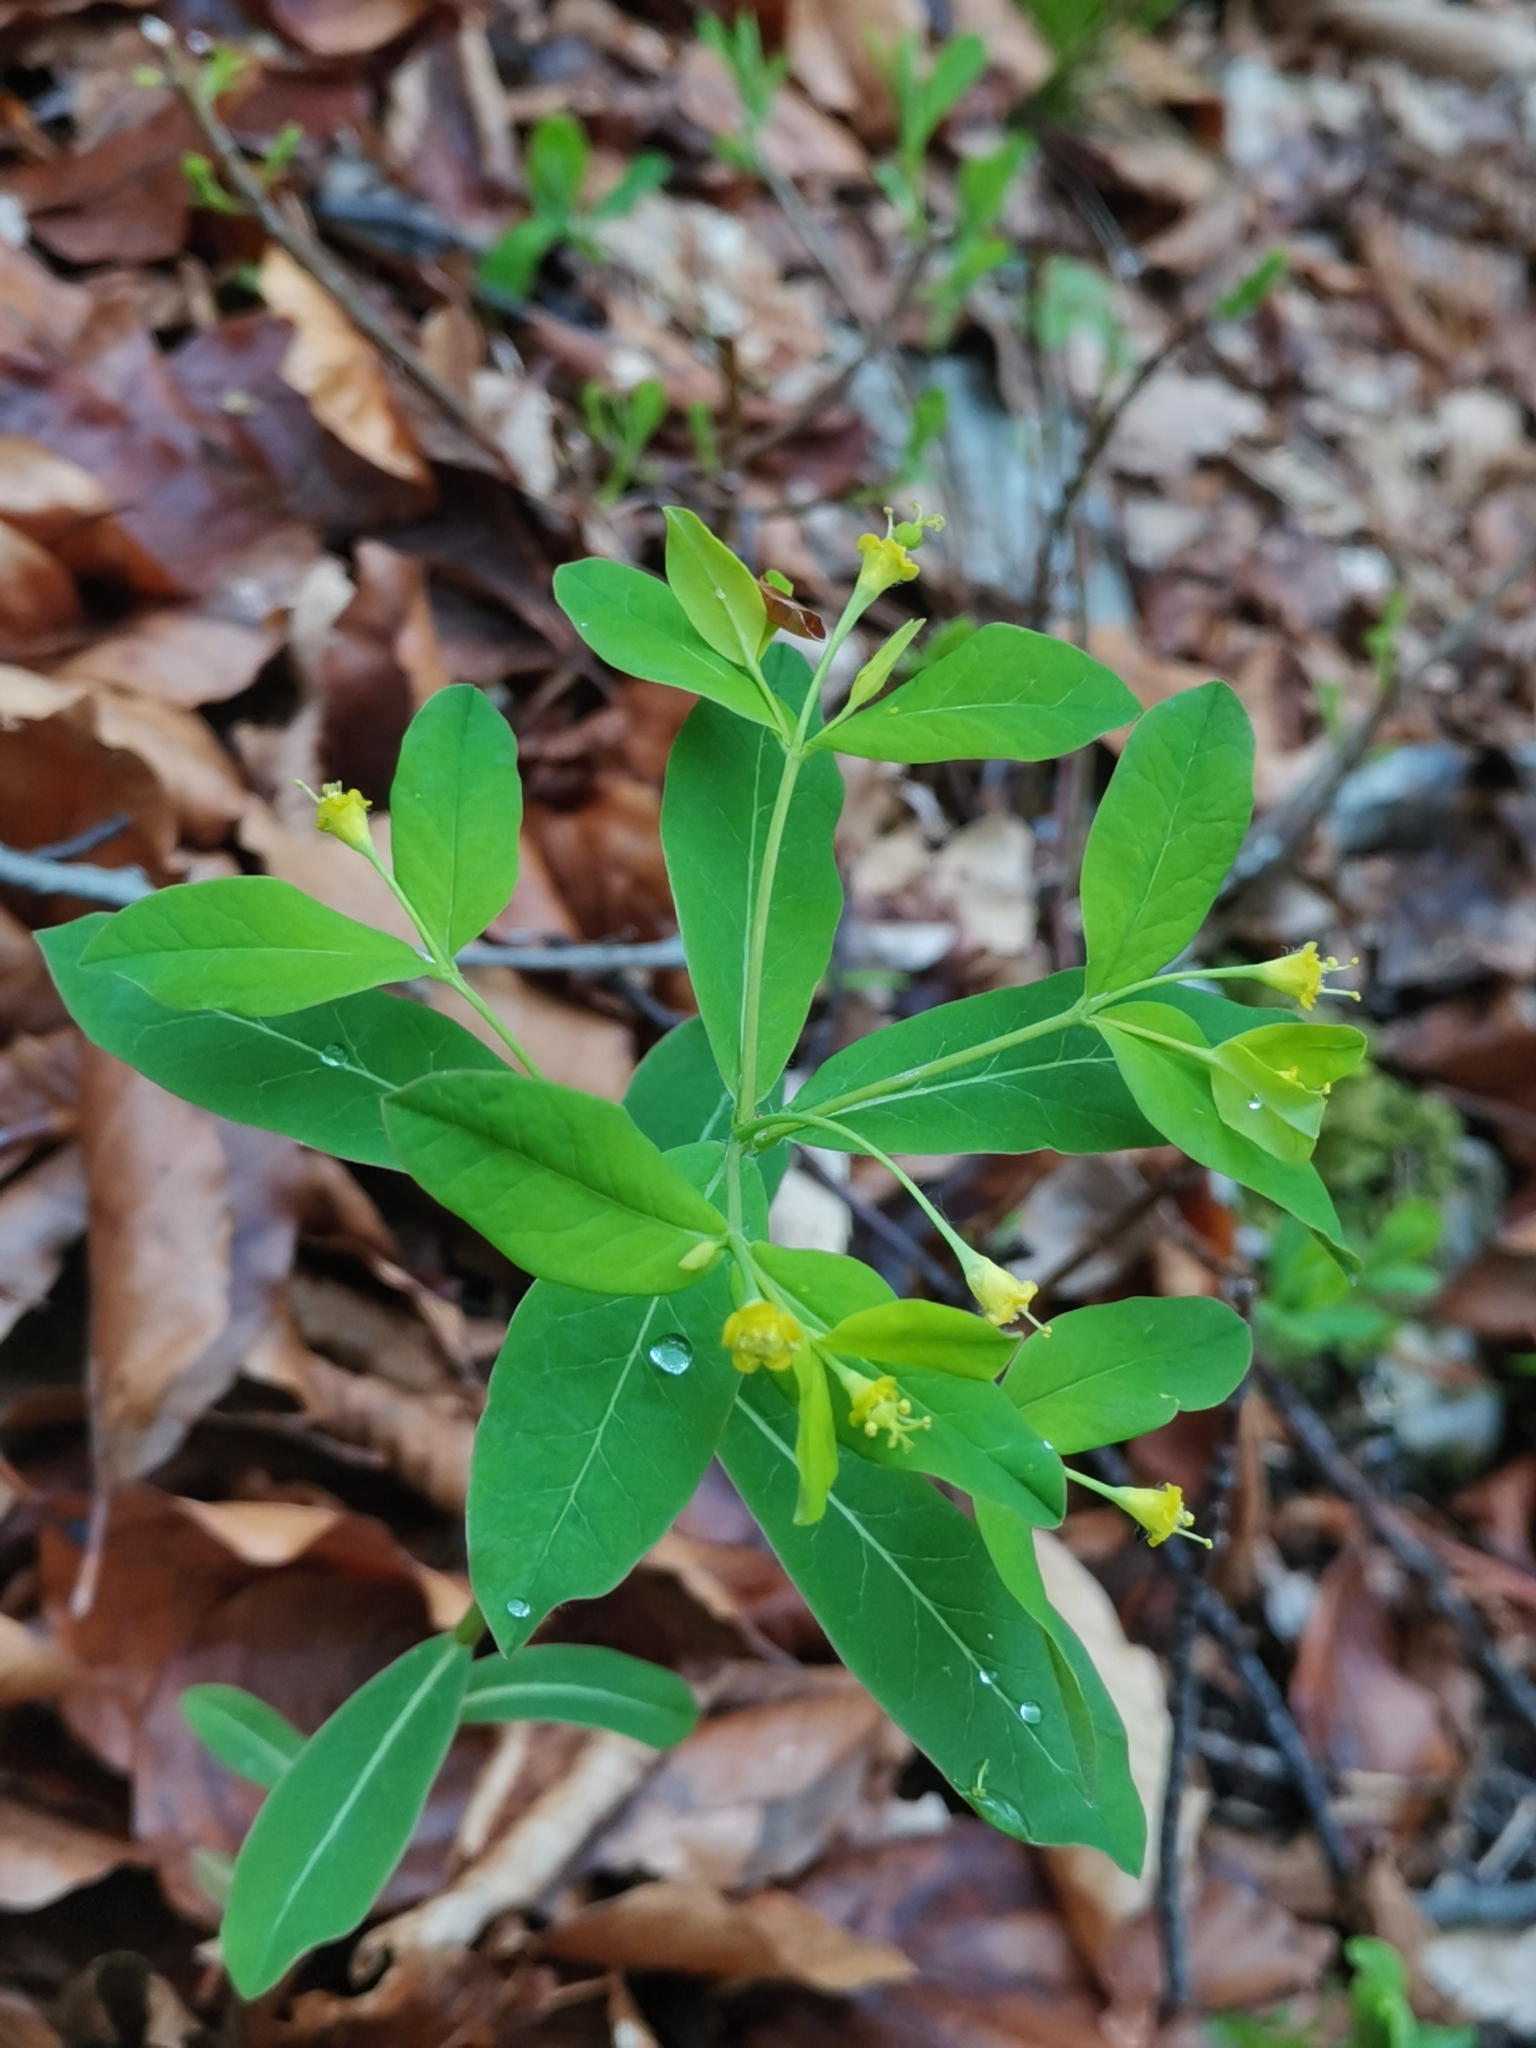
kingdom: Plantae
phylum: Tracheophyta
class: Magnoliopsida
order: Malpighiales
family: Euphorbiaceae
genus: Euphorbia
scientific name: Euphorbia carniolica
